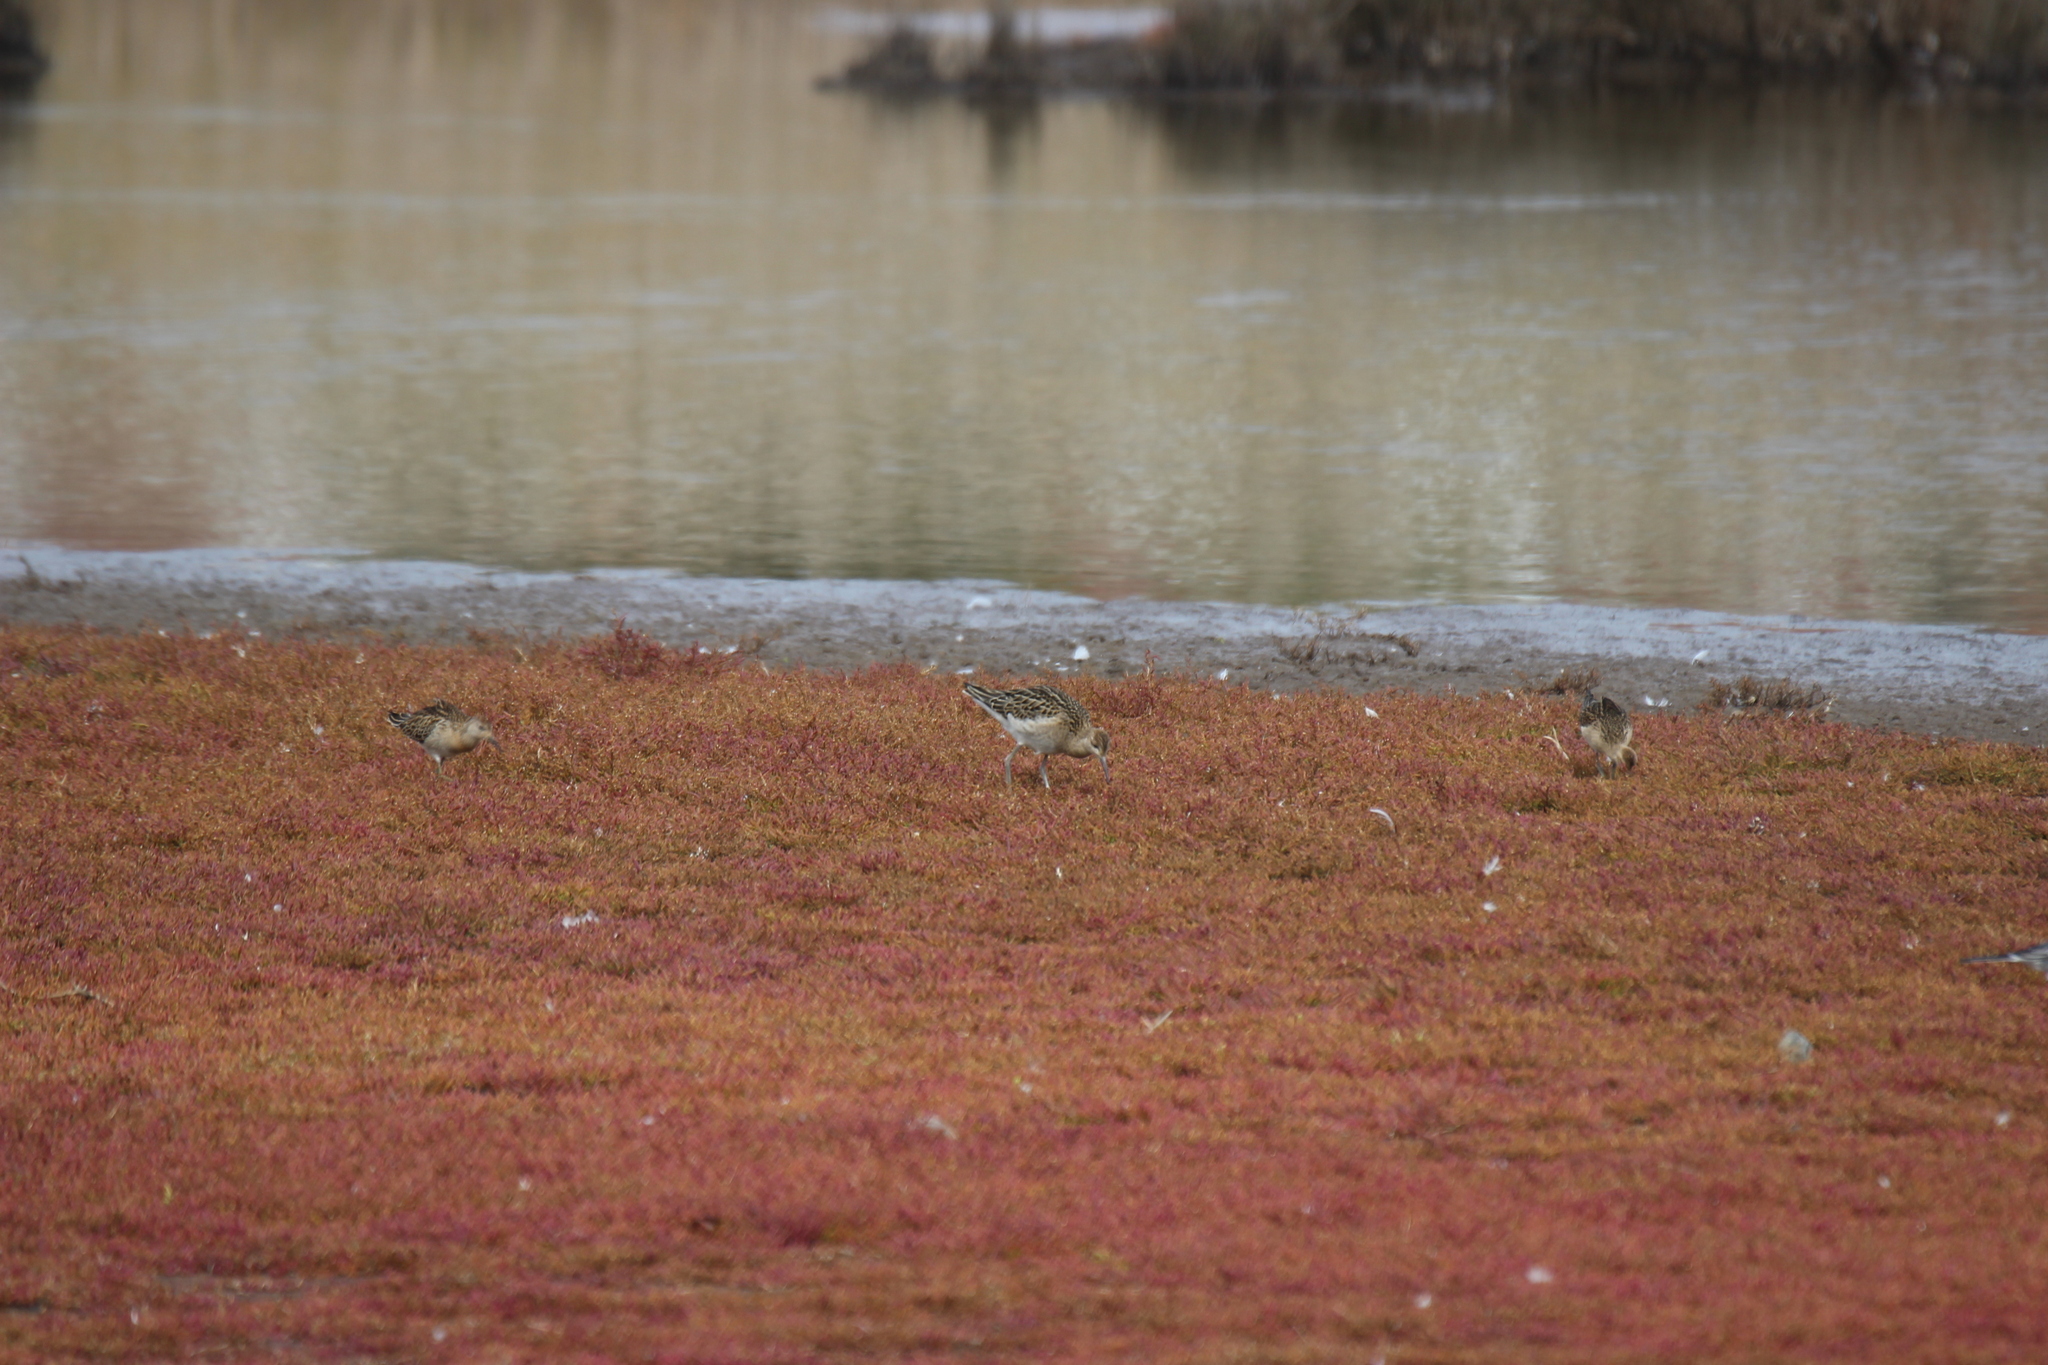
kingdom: Animalia
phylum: Chordata
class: Aves
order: Charadriiformes
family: Scolopacidae
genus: Calidris
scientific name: Calidris pugnax
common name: Ruff
